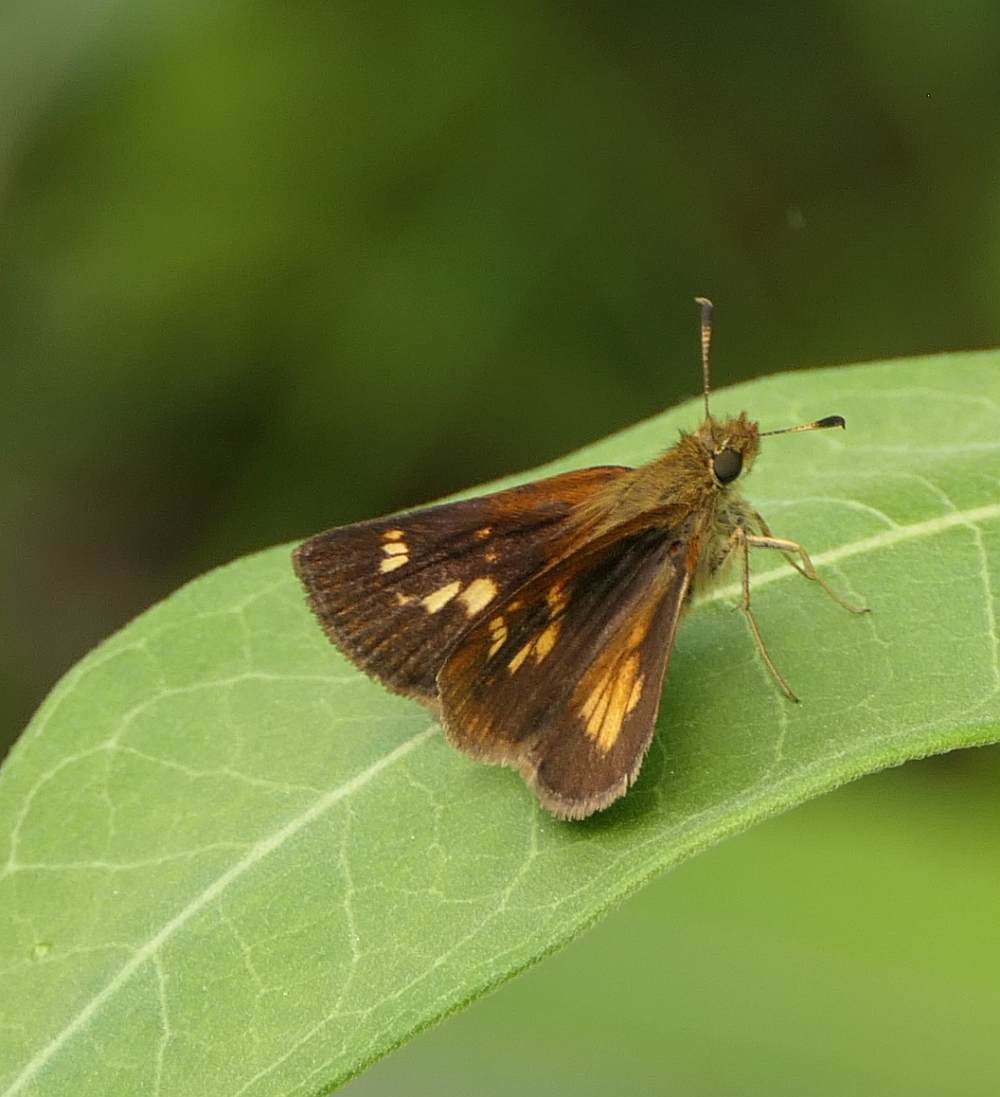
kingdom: Animalia
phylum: Arthropoda
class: Insecta
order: Lepidoptera
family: Hesperiidae
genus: Poanes
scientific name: Poanes viator
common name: Broad-winged skipper
